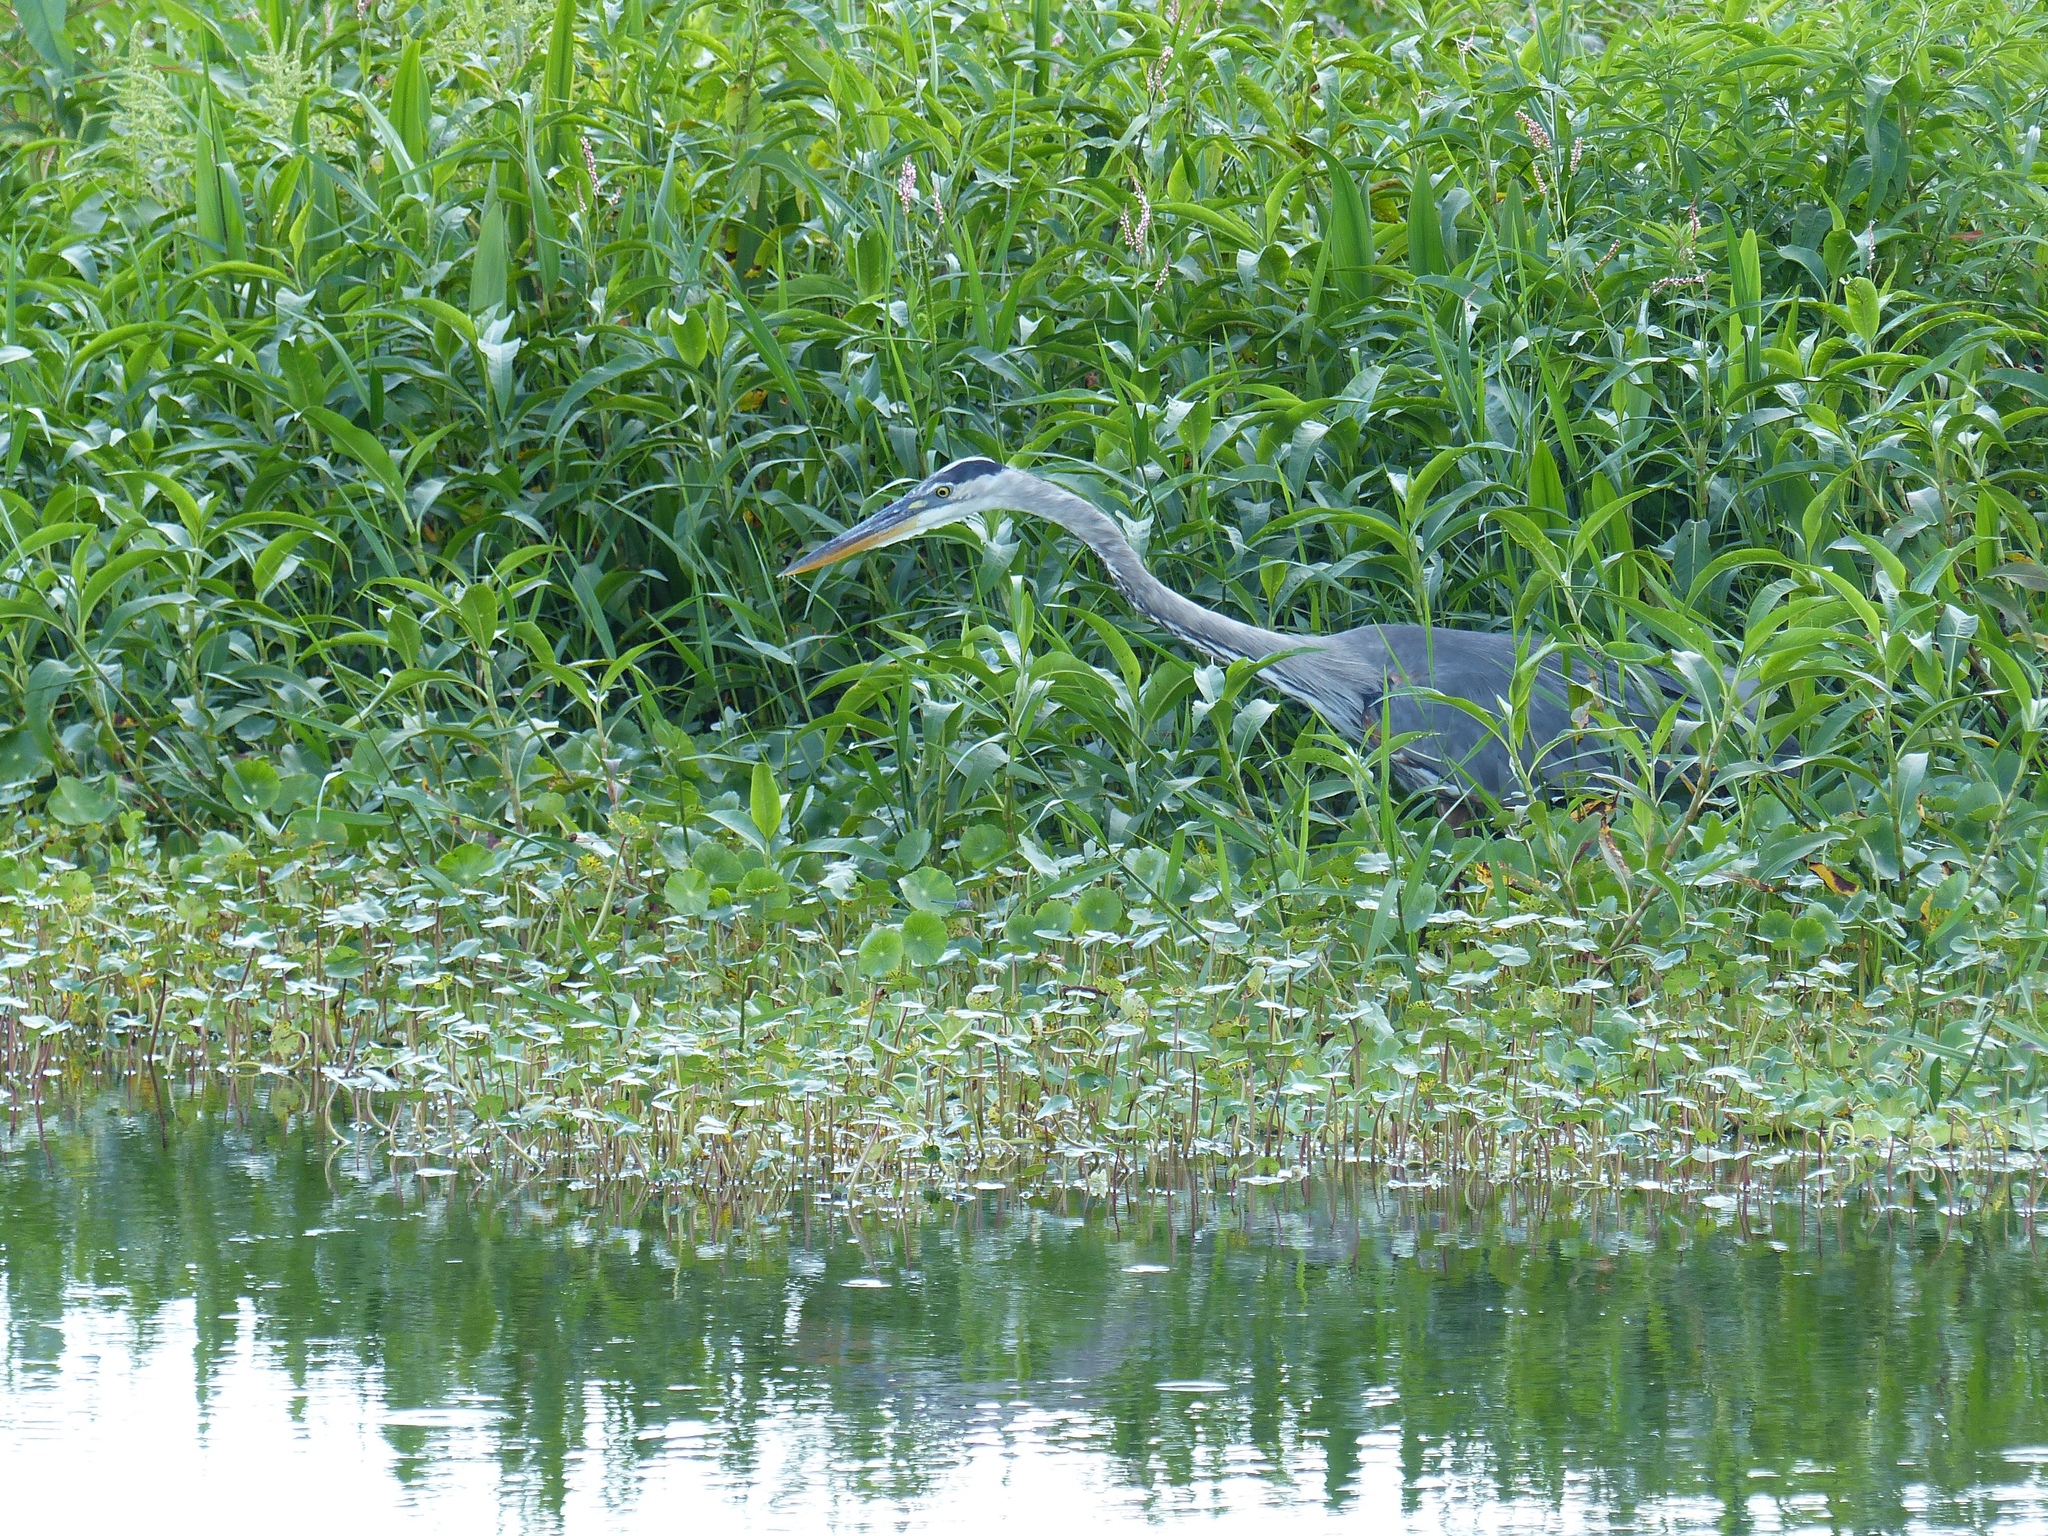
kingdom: Animalia
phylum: Chordata
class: Aves
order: Pelecaniformes
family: Ardeidae
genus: Ardea
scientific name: Ardea herodias
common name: Great blue heron
